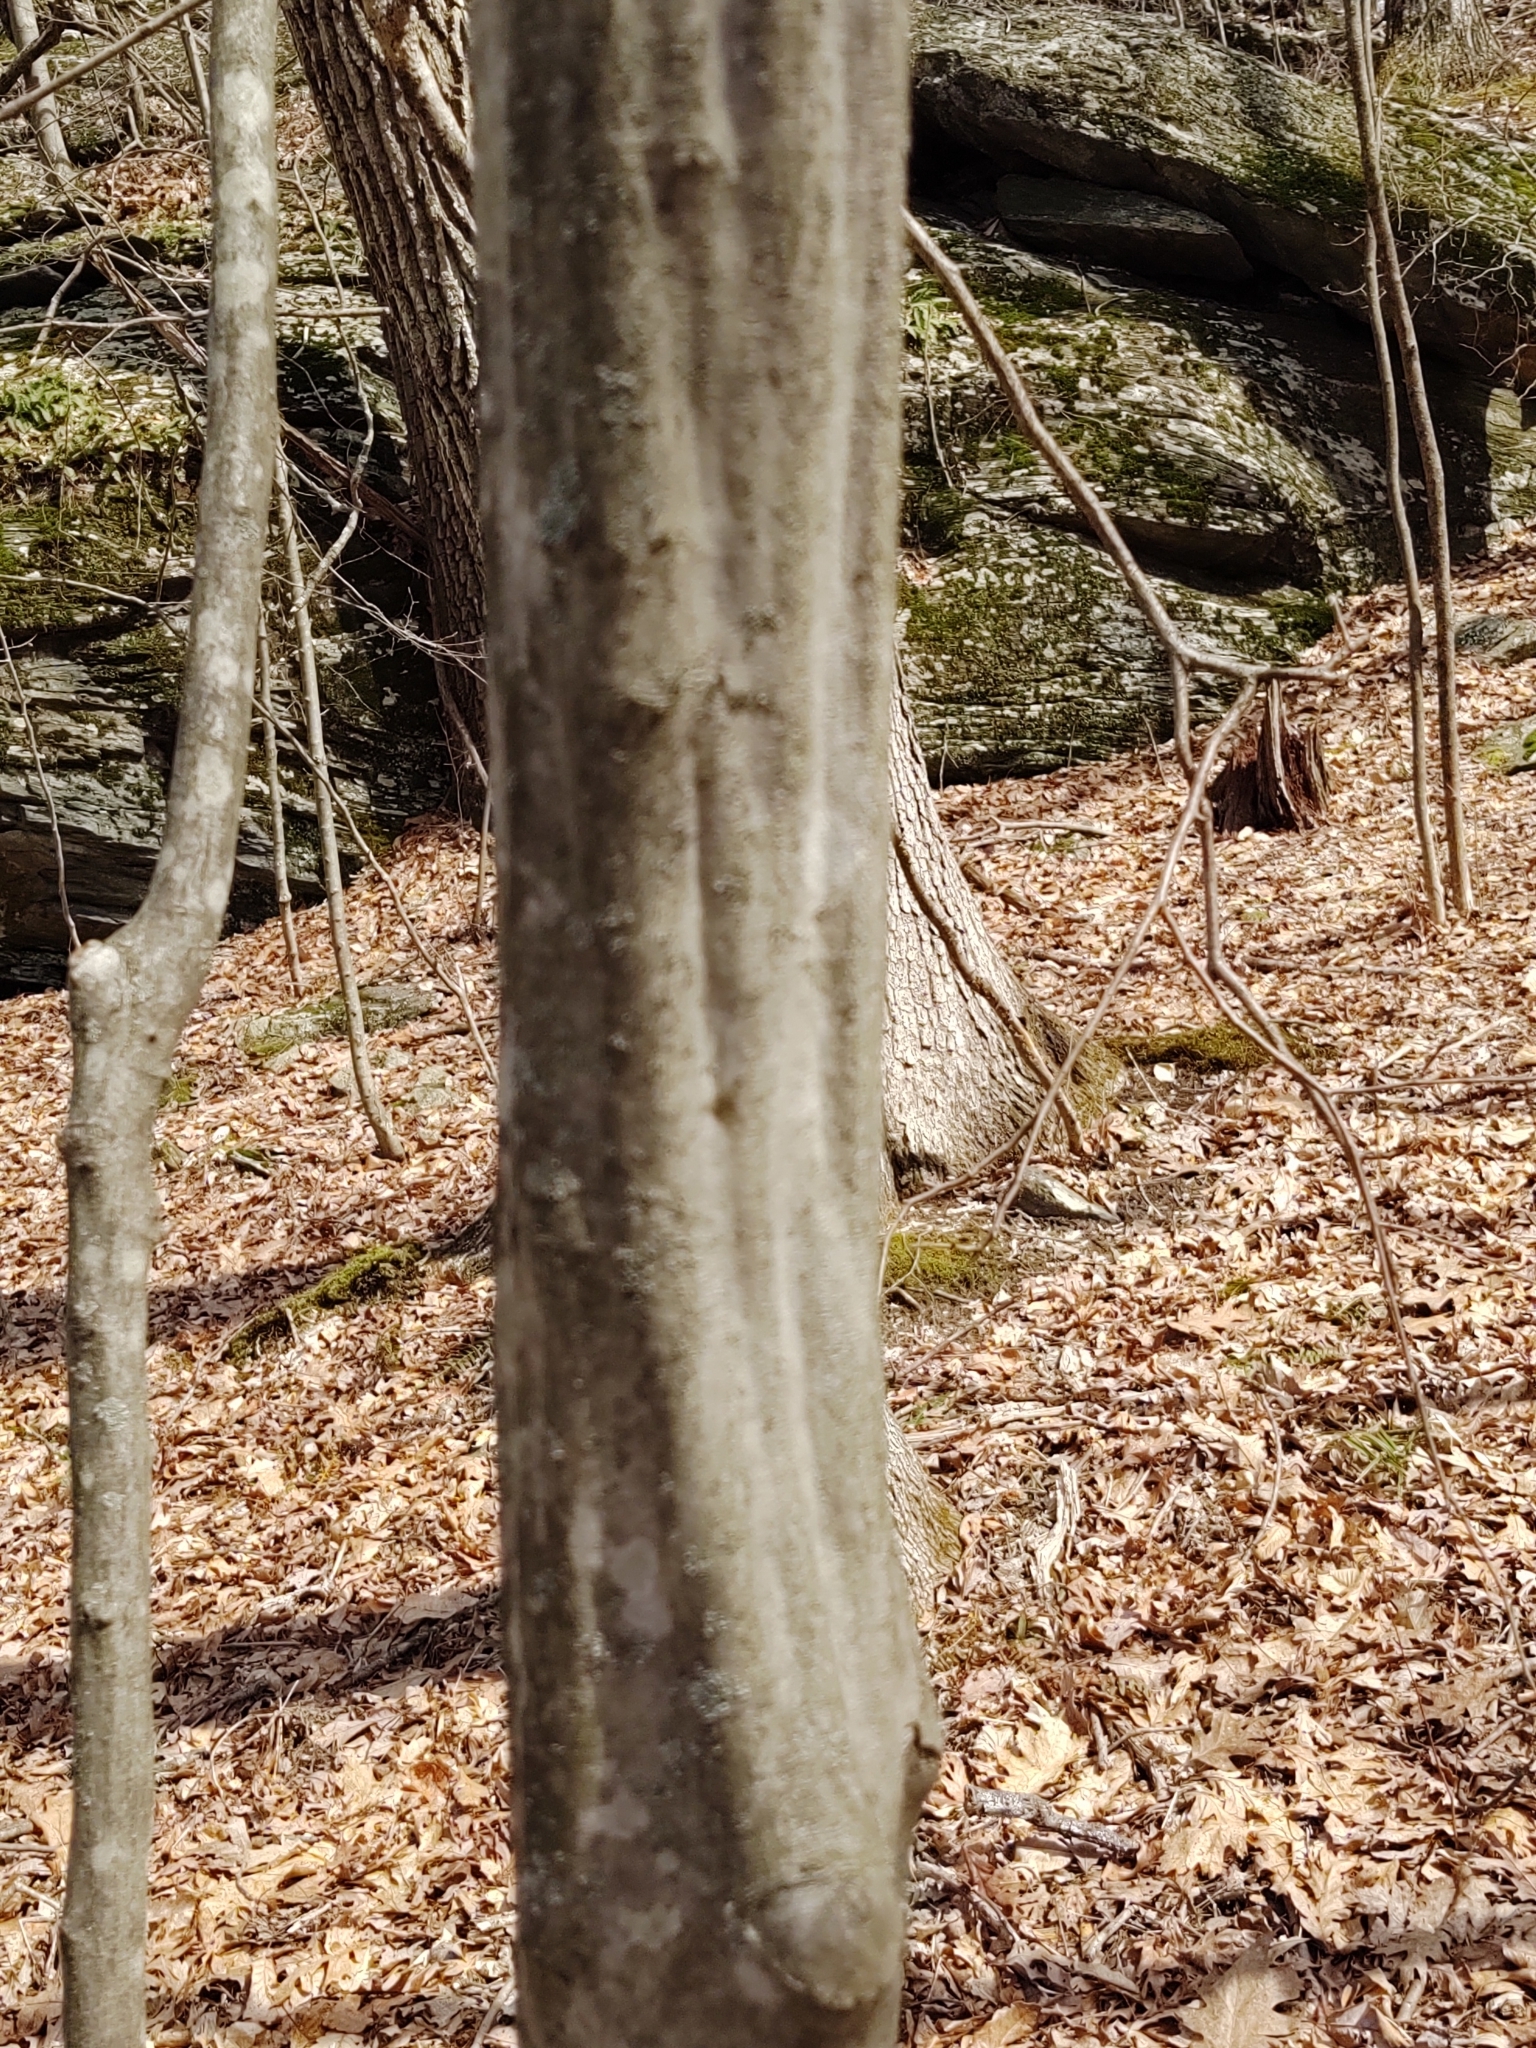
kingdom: Plantae
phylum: Tracheophyta
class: Magnoliopsida
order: Fagales
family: Betulaceae
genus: Carpinus
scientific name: Carpinus caroliniana
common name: American hornbeam
